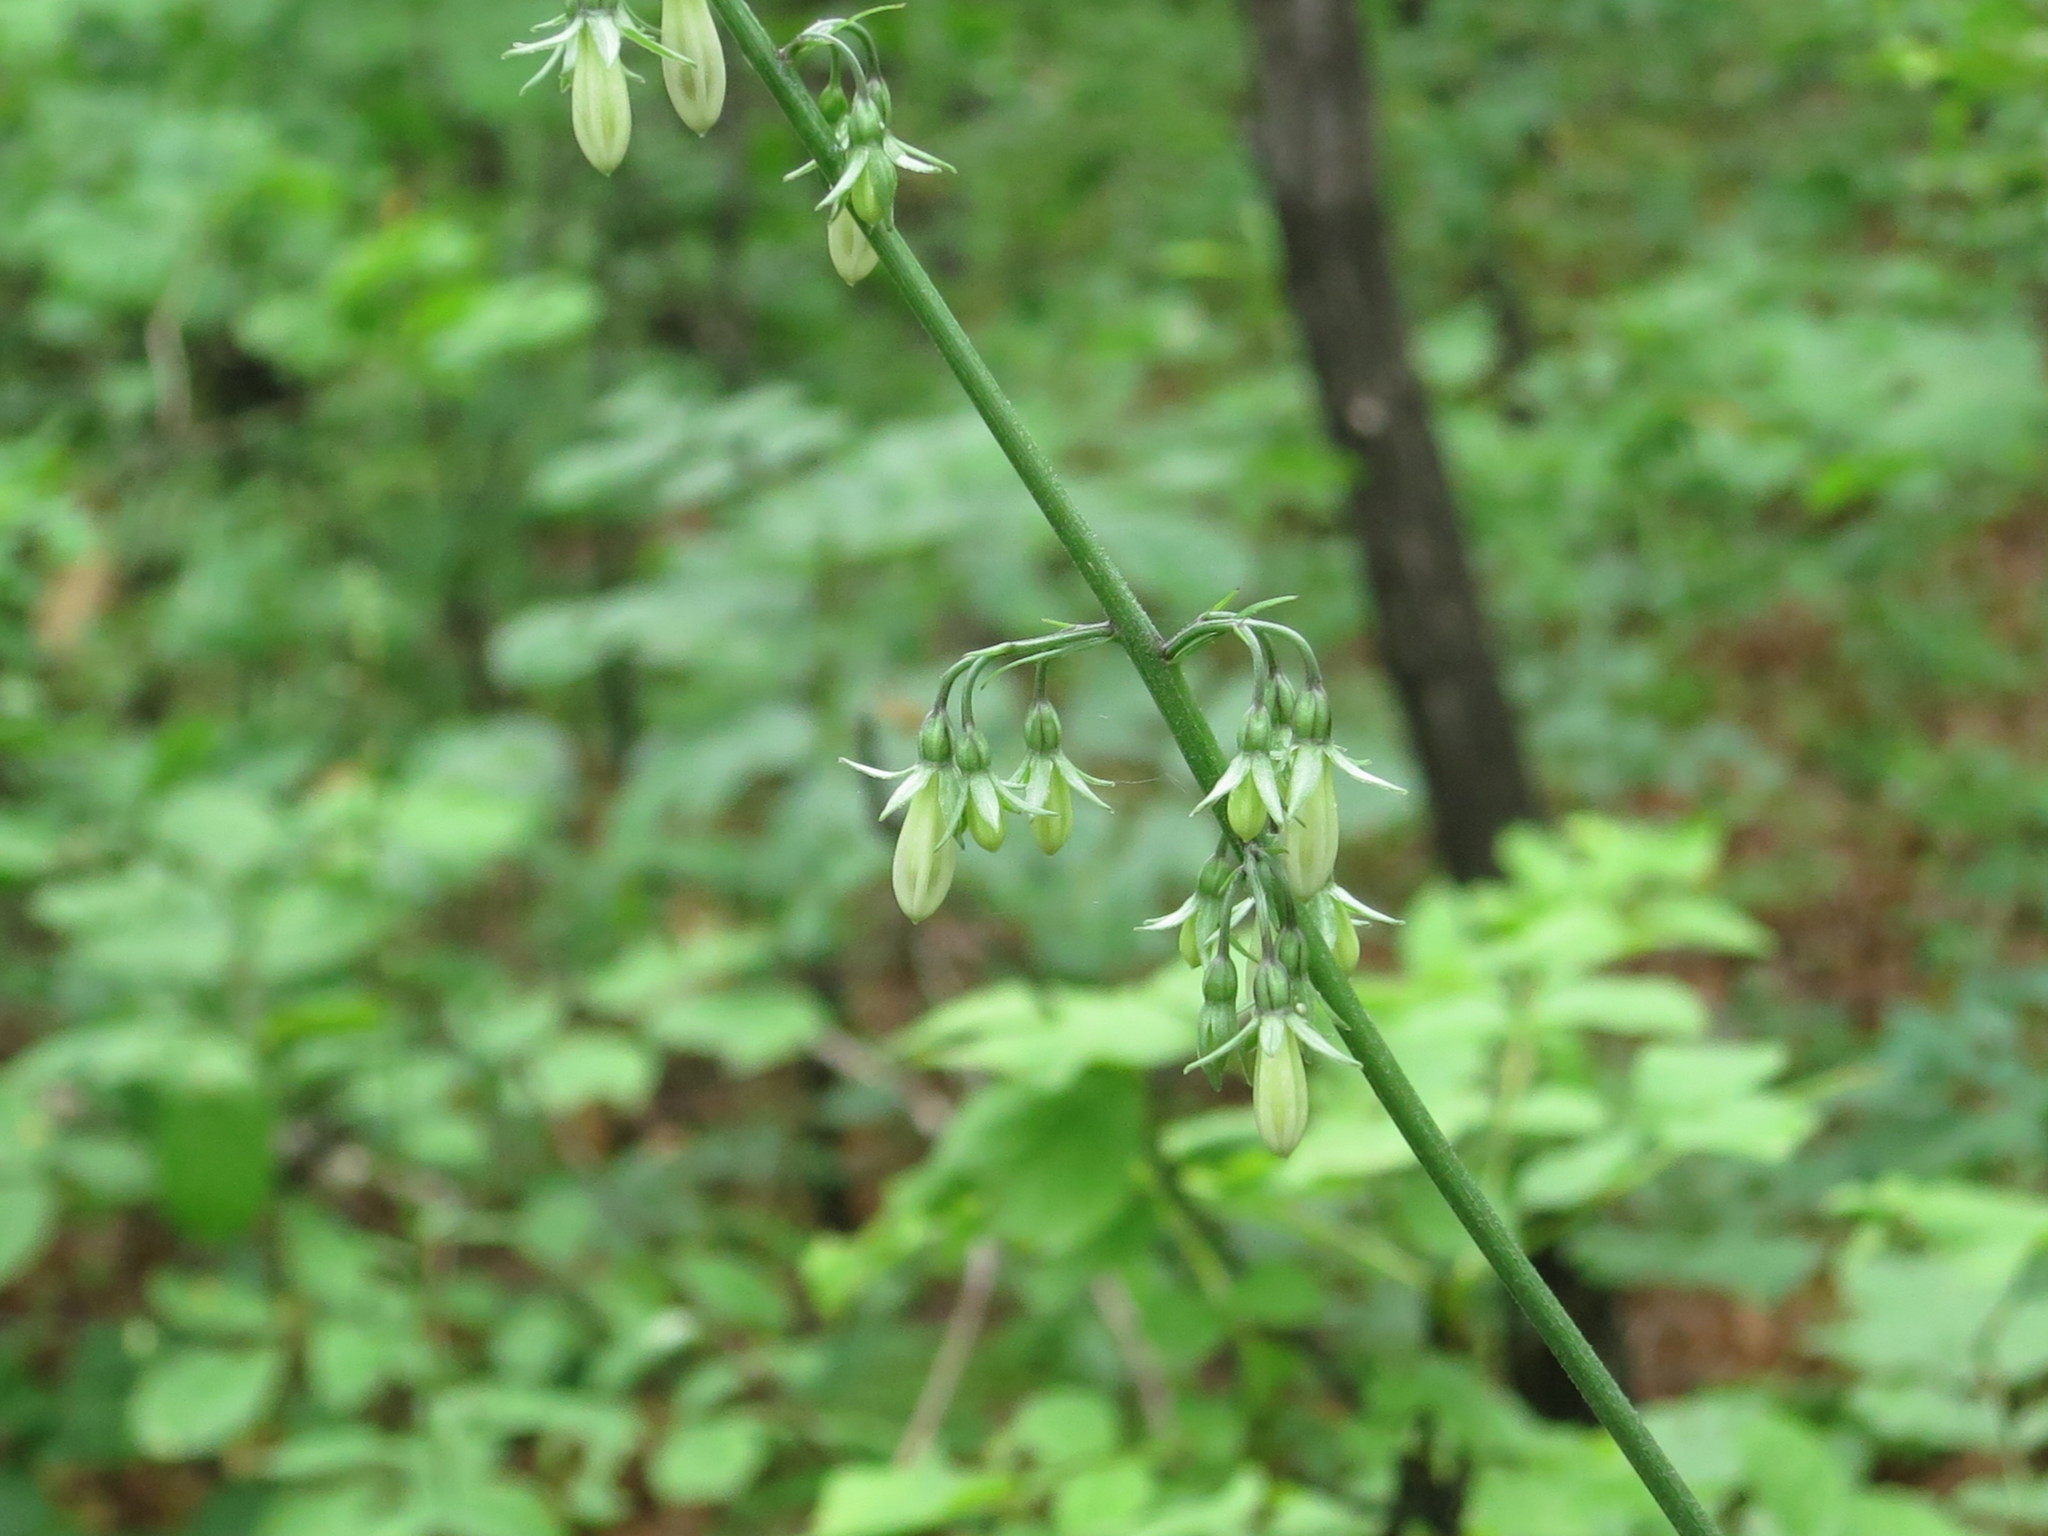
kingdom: Plantae
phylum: Tracheophyta
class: Magnoliopsida
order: Asterales
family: Campanulaceae
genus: Adenophora
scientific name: Adenophora pereskiifolia
